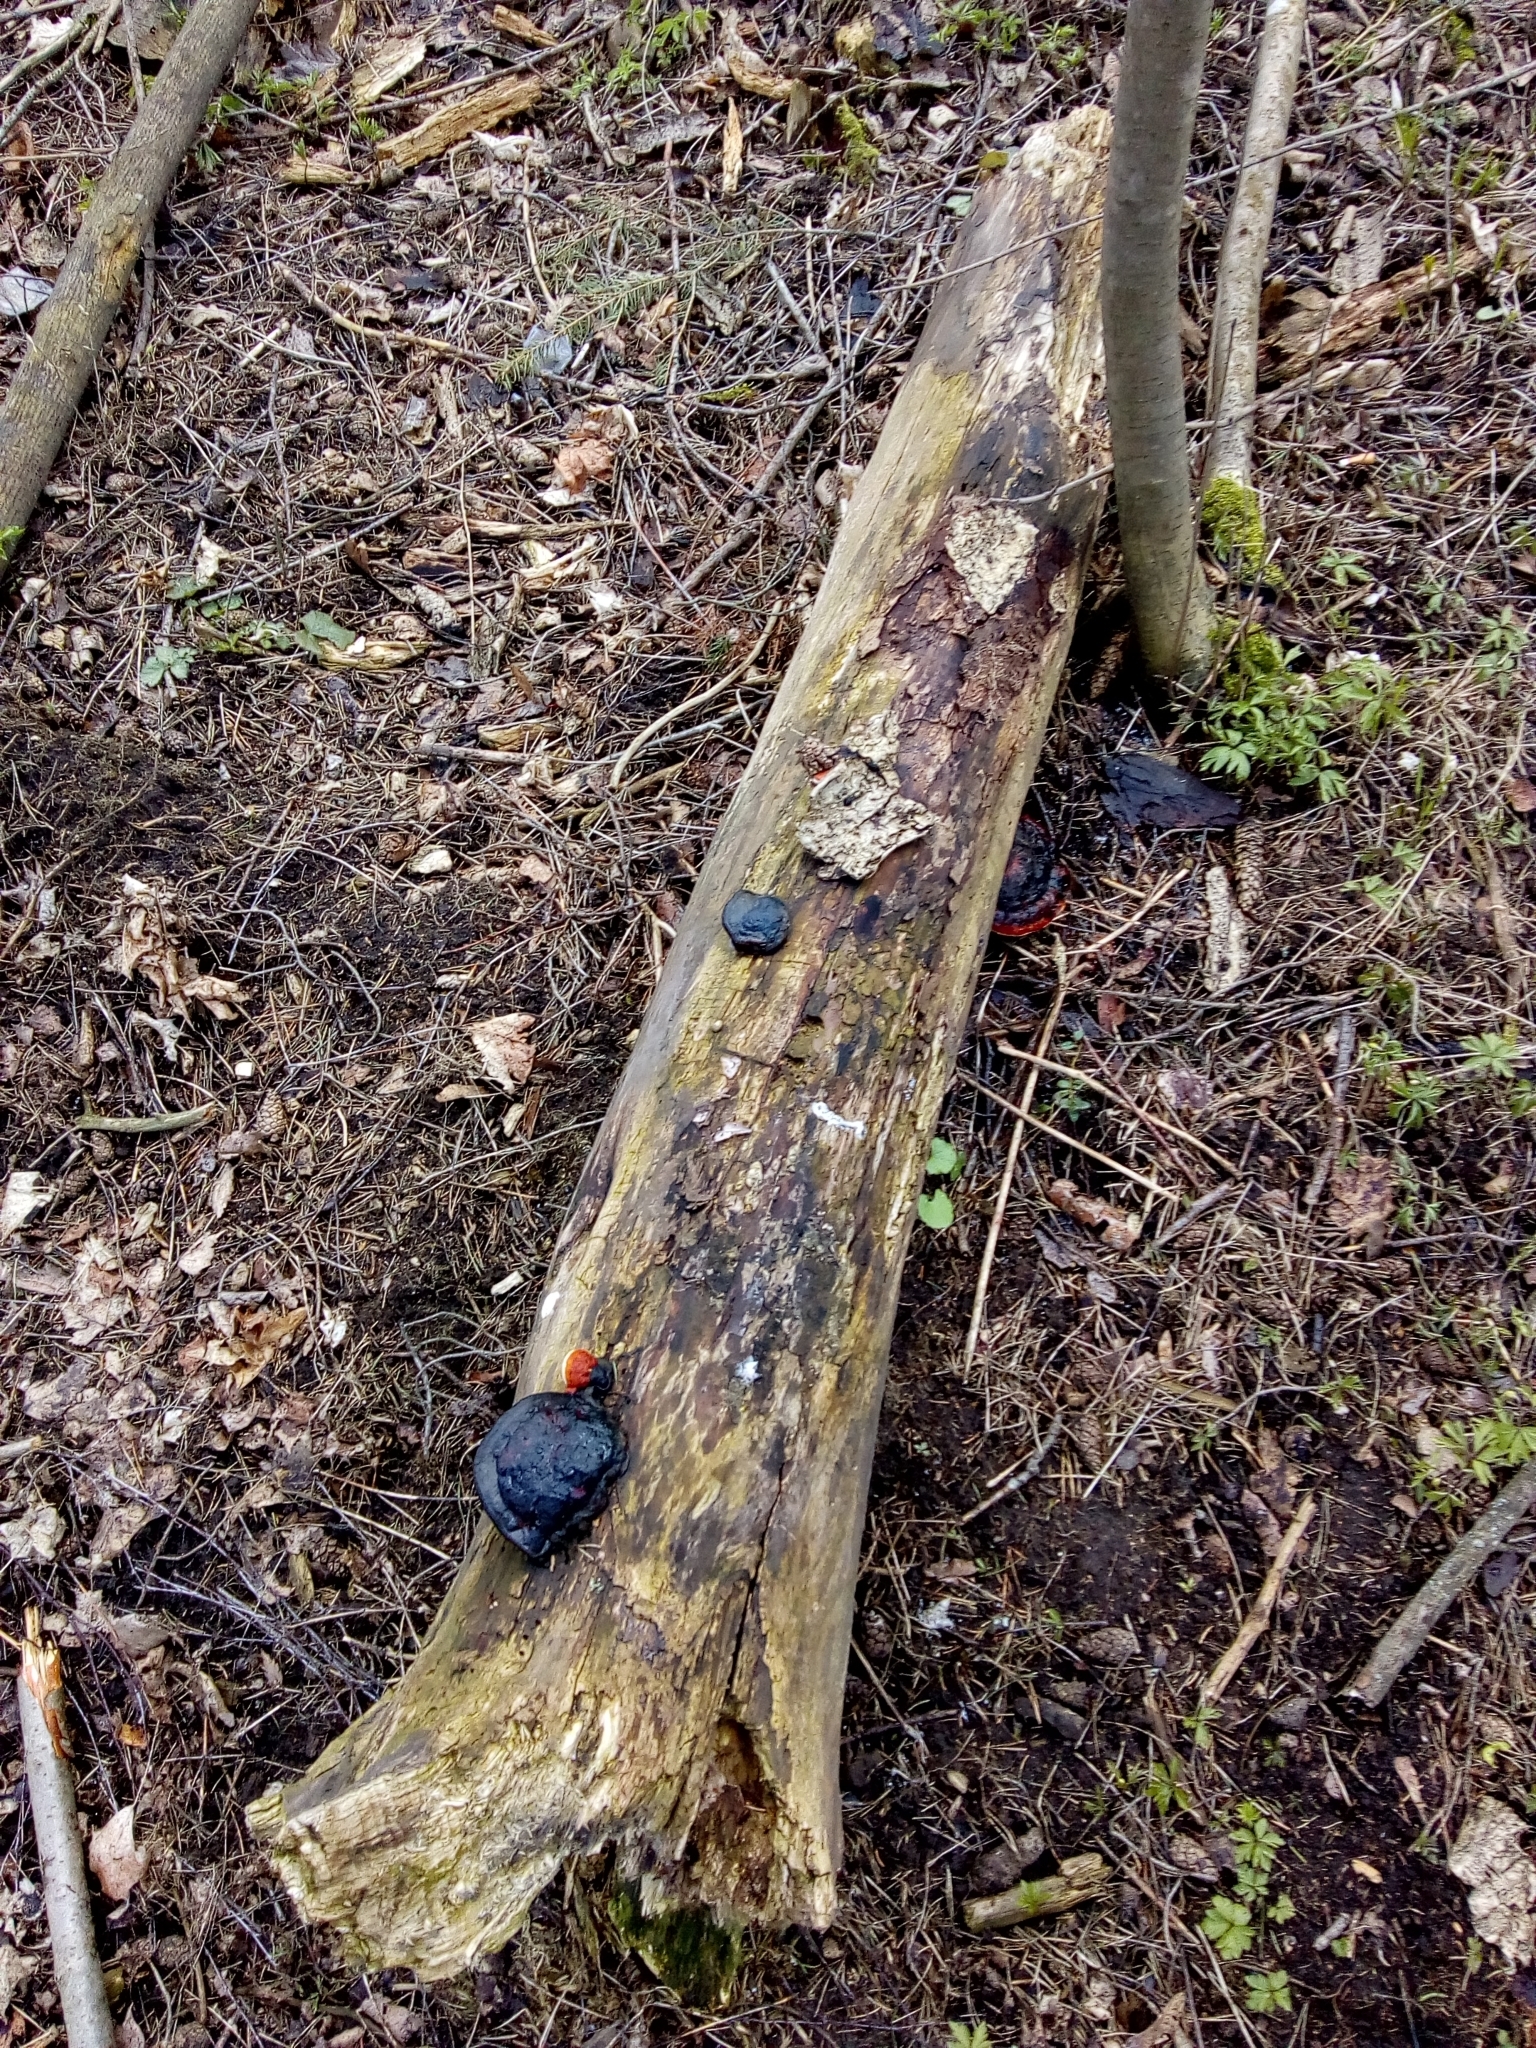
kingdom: Fungi
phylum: Basidiomycota
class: Agaricomycetes
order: Polyporales
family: Fomitopsidaceae
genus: Fomitopsis
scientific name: Fomitopsis pinicola
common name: Red-belted bracket
